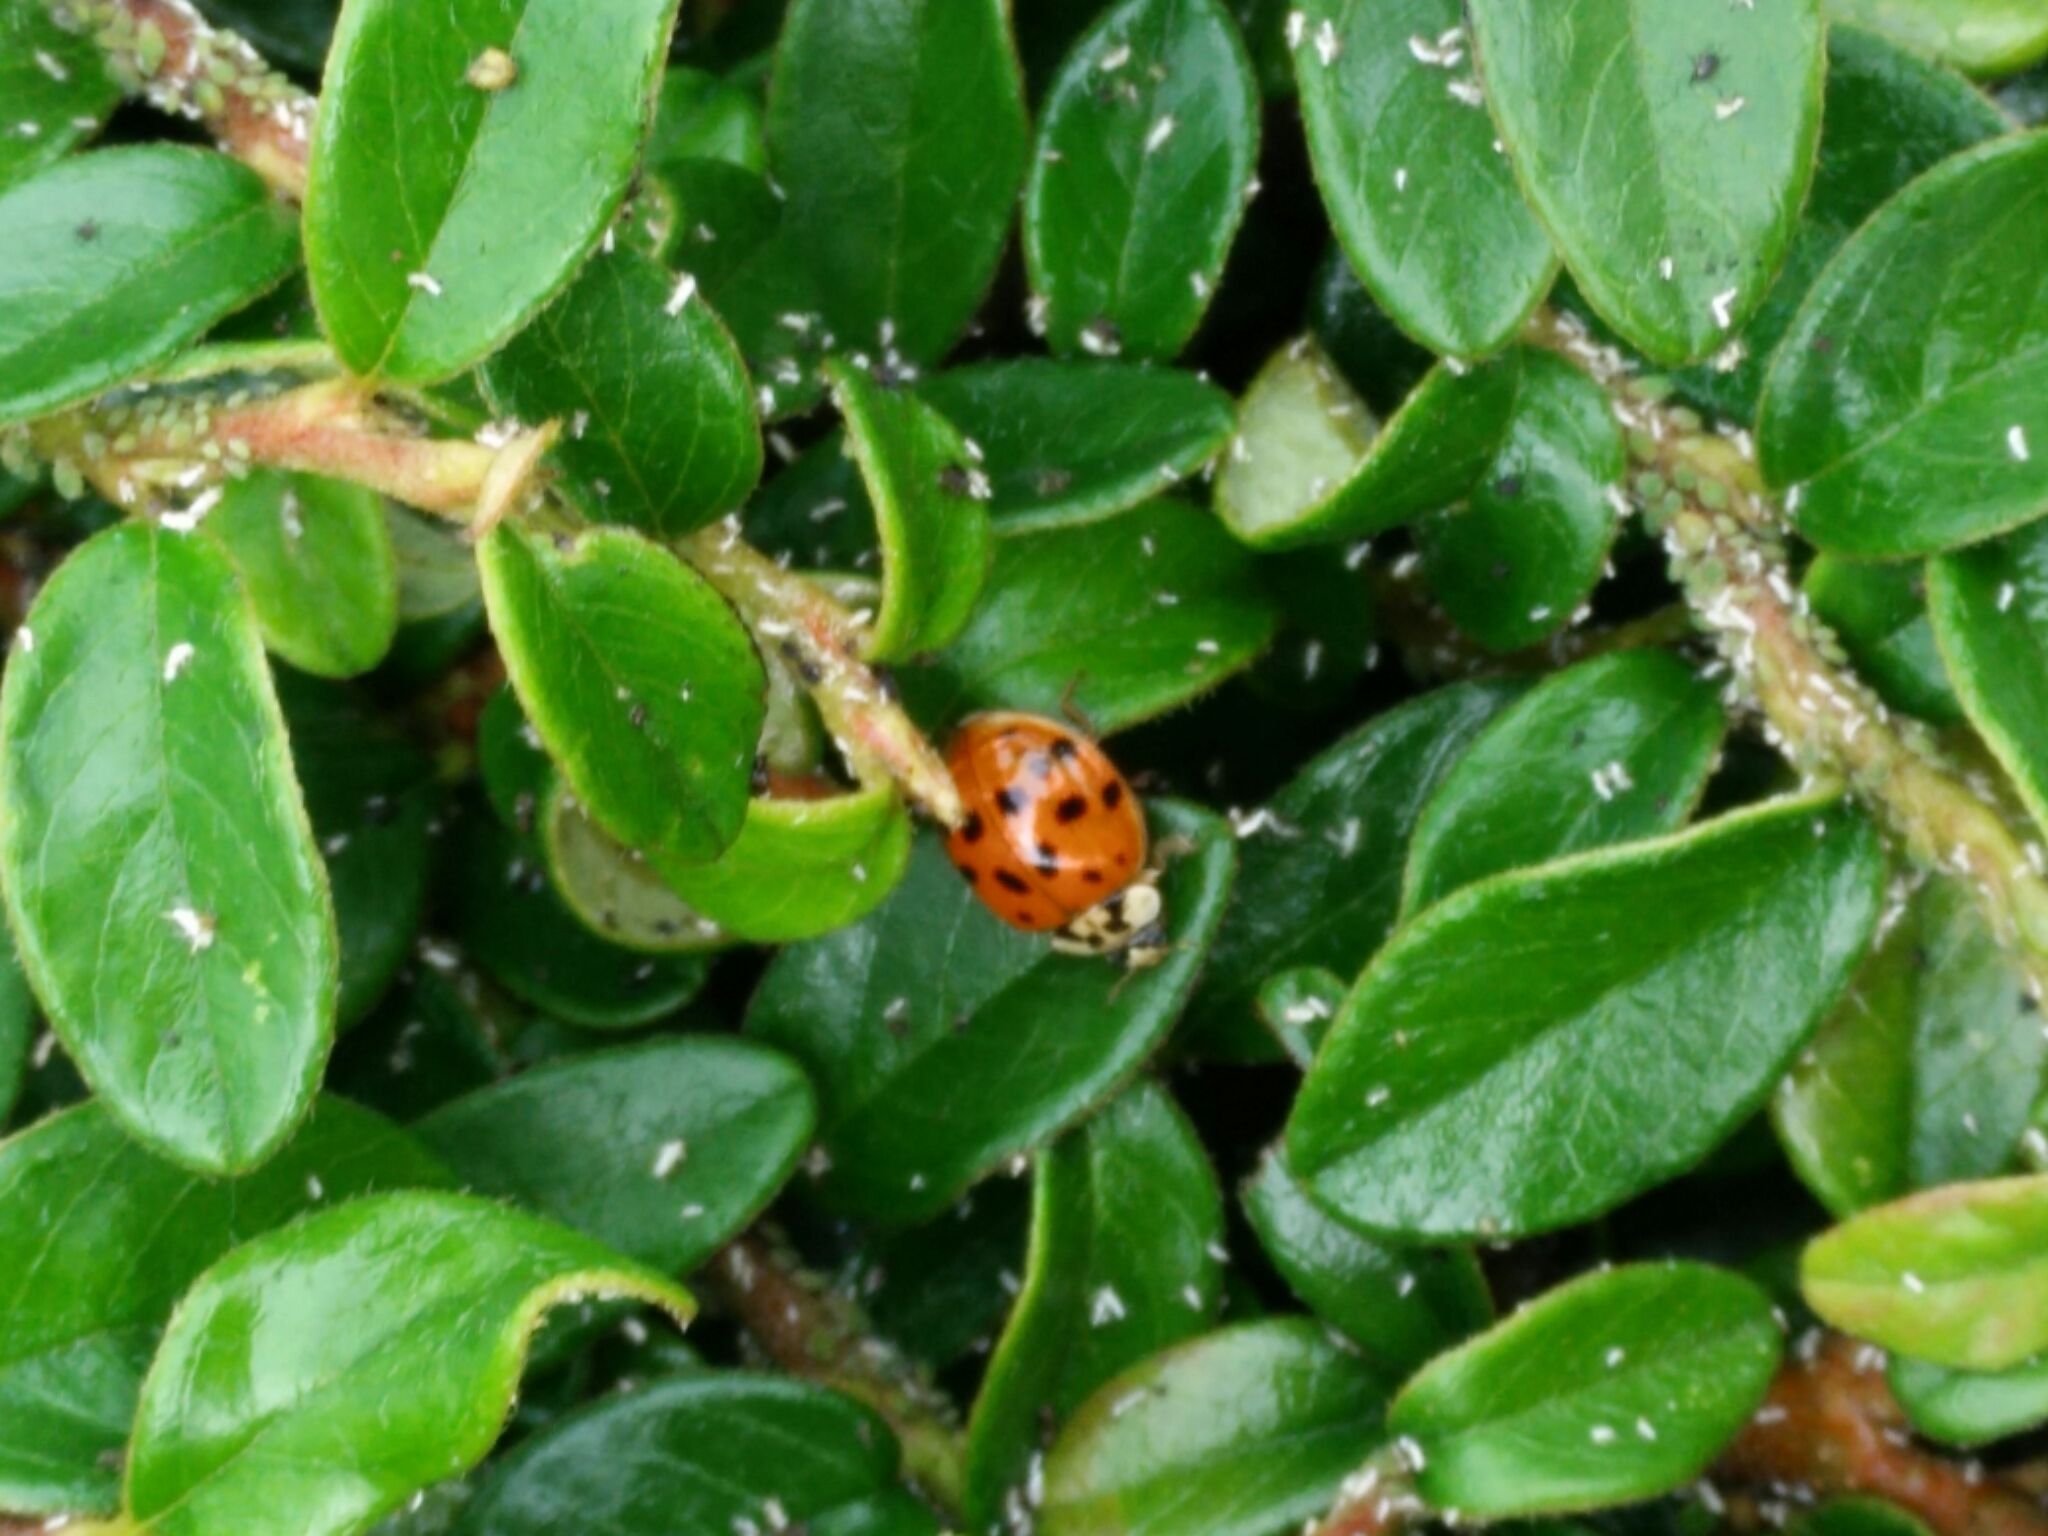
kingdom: Animalia
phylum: Arthropoda
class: Insecta
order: Coleoptera
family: Coccinellidae
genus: Harmonia
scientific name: Harmonia axyridis
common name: Harlequin ladybird
